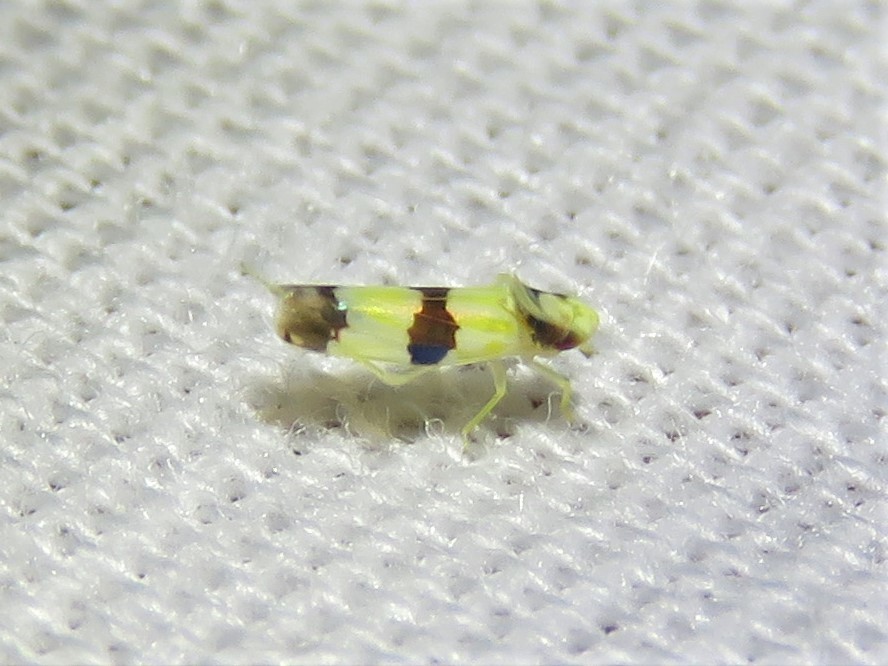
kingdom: Animalia
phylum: Arthropoda
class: Insecta
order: Hemiptera
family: Cicadellidae
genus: Erythroneura
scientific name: Erythroneura calycula
